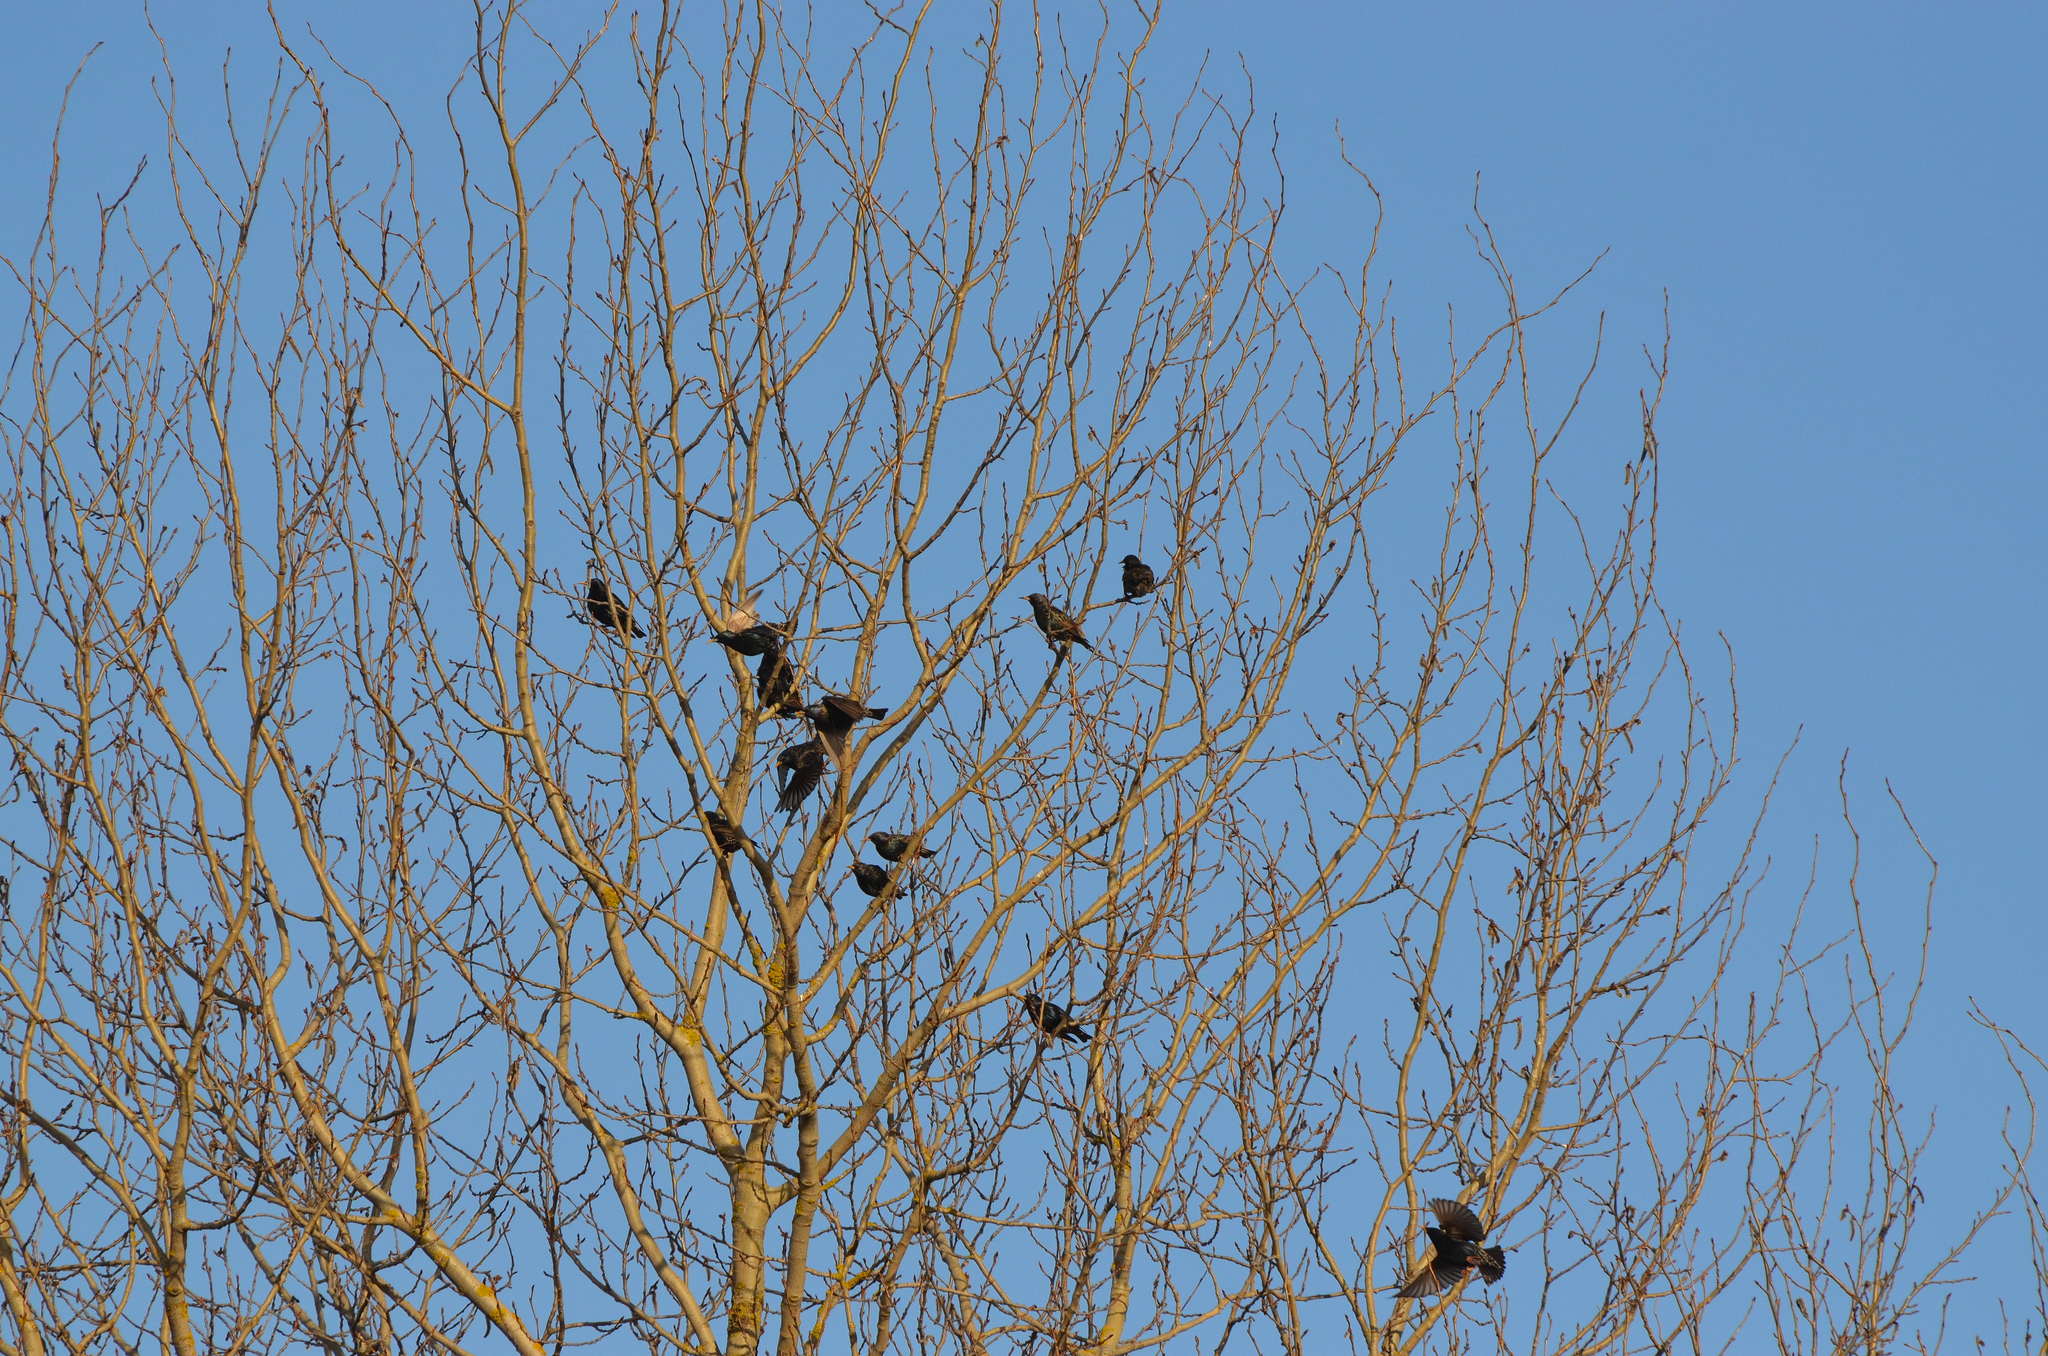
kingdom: Animalia
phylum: Chordata
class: Aves
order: Passeriformes
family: Sturnidae
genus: Sturnus
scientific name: Sturnus vulgaris
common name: Common starling
